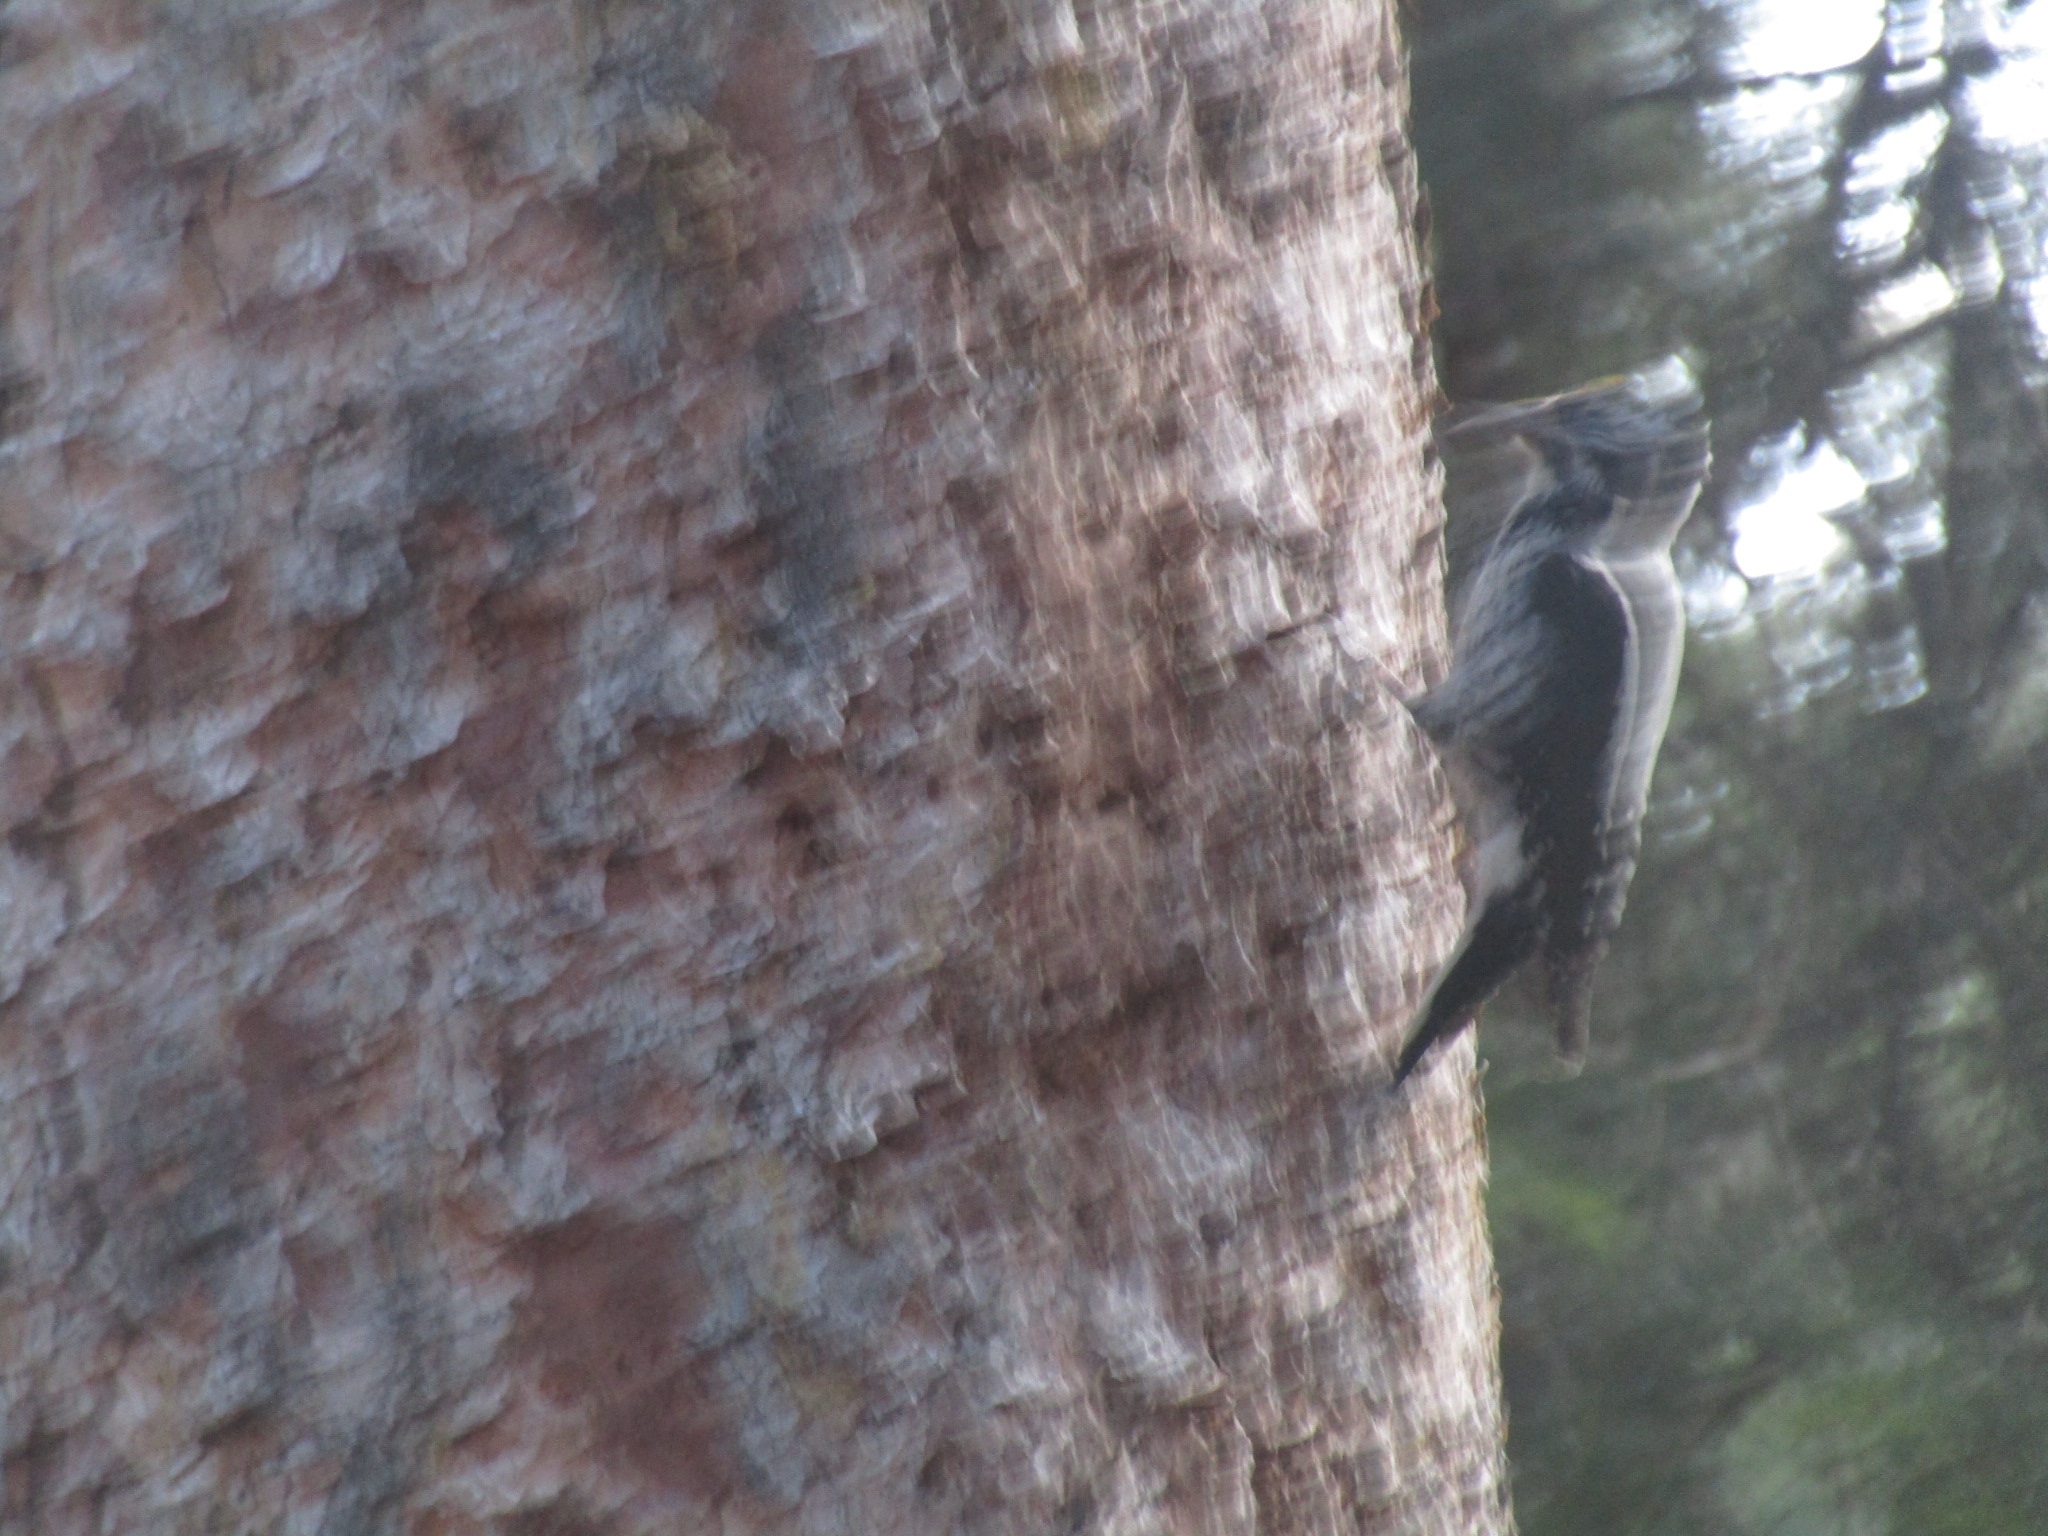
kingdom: Animalia
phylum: Chordata
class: Aves
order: Piciformes
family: Picidae
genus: Picoides
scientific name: Picoides dorsalis
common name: American three-toed woodpecker
